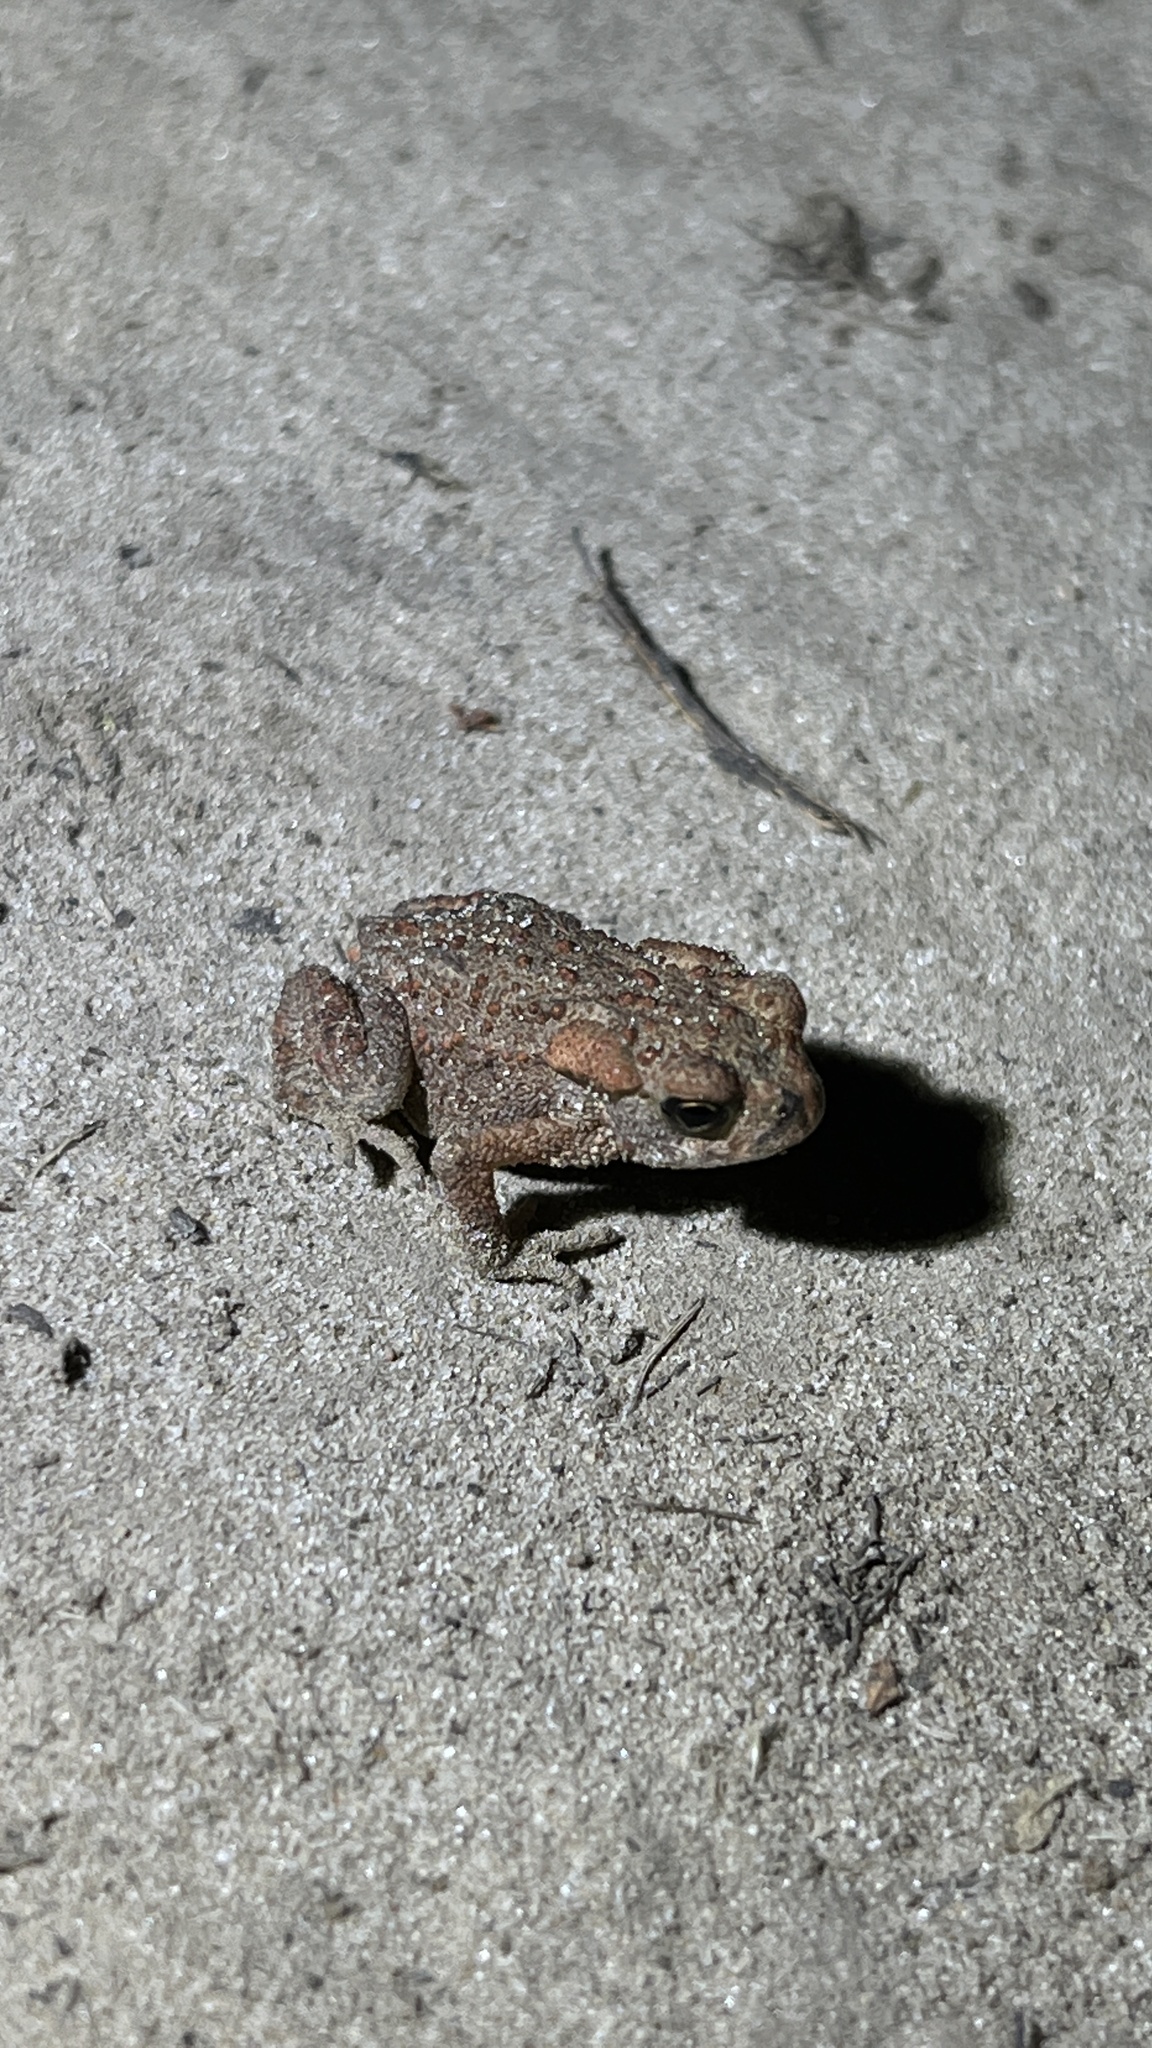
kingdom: Animalia
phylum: Chordata
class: Amphibia
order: Anura
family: Bufonidae
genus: Bufo
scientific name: Bufo bufo
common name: Common toad
